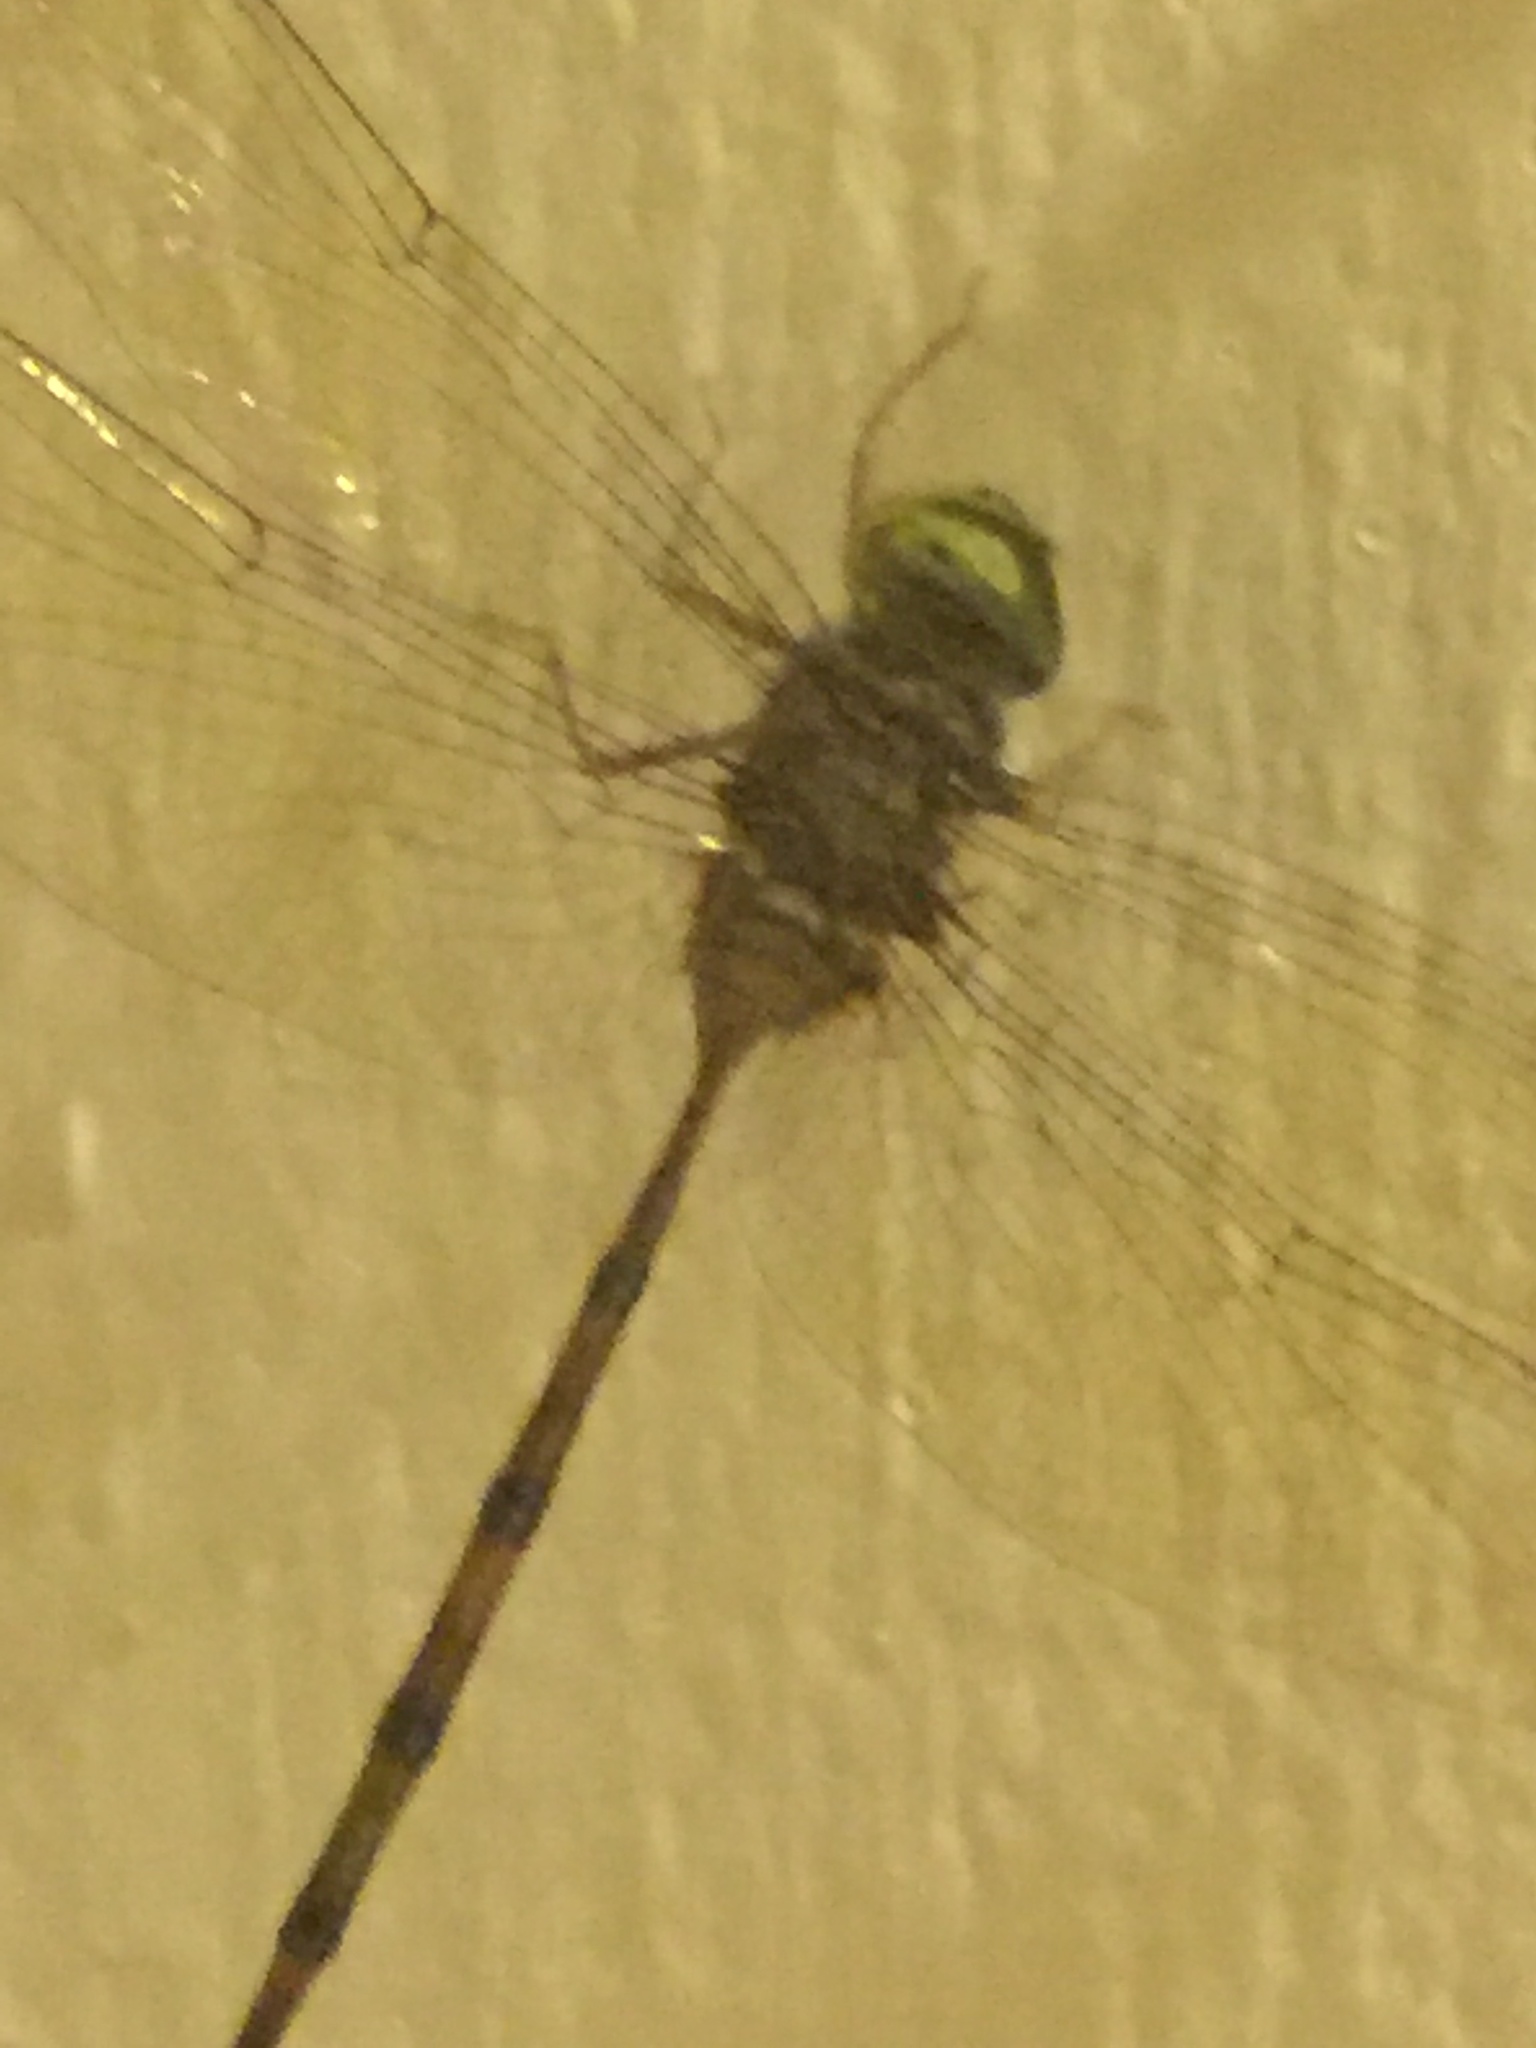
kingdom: Animalia
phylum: Arthropoda
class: Insecta
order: Odonata
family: Libellulidae
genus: Zyxomma
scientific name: Zyxomma petiolatum
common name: Dingy dusk-darter
